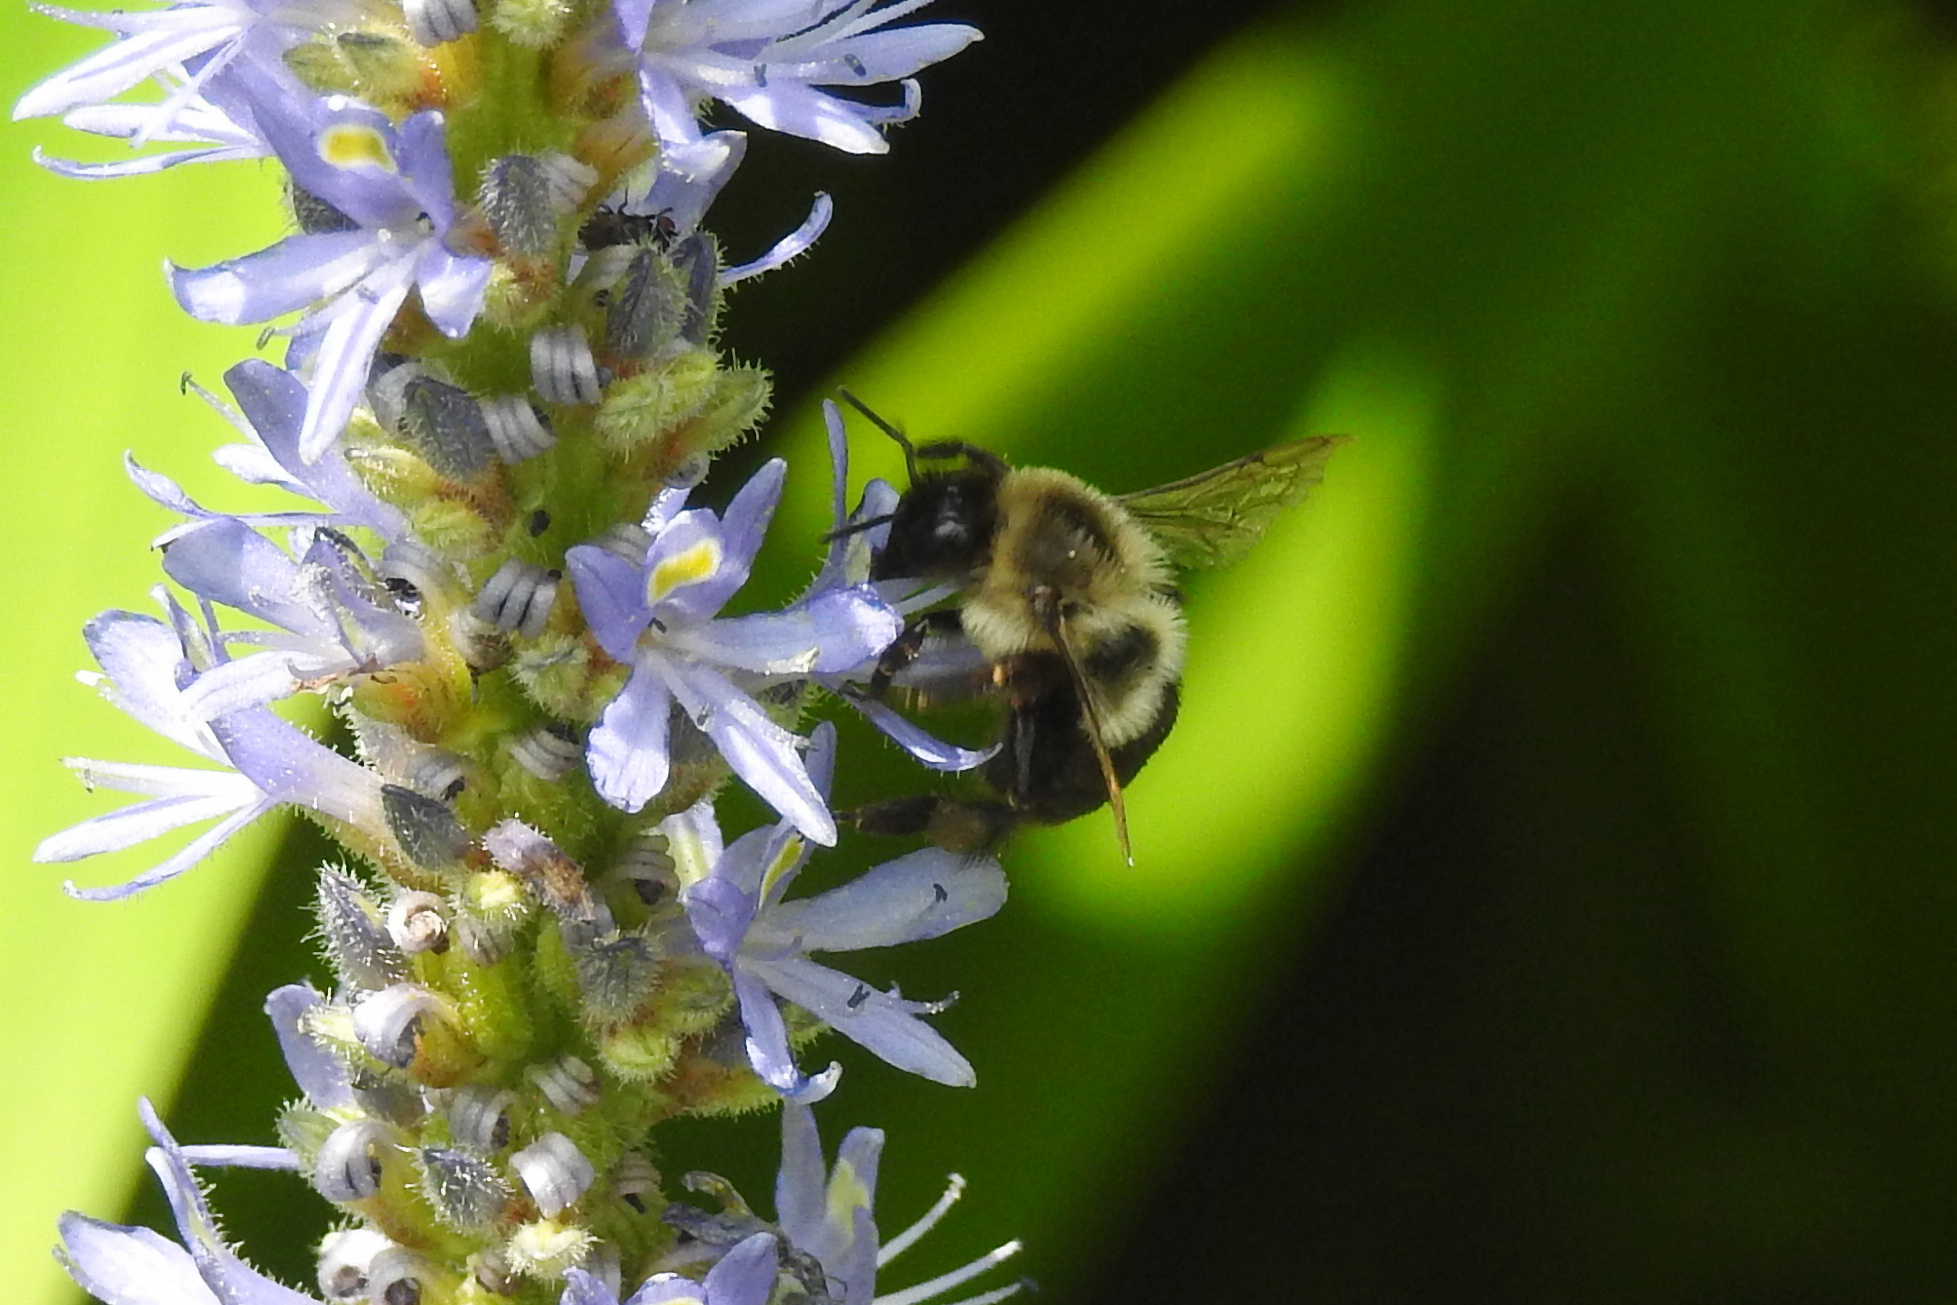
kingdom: Animalia
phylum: Arthropoda
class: Insecta
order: Hymenoptera
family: Apidae
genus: Bombus
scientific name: Bombus impatiens
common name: Common eastern bumble bee
